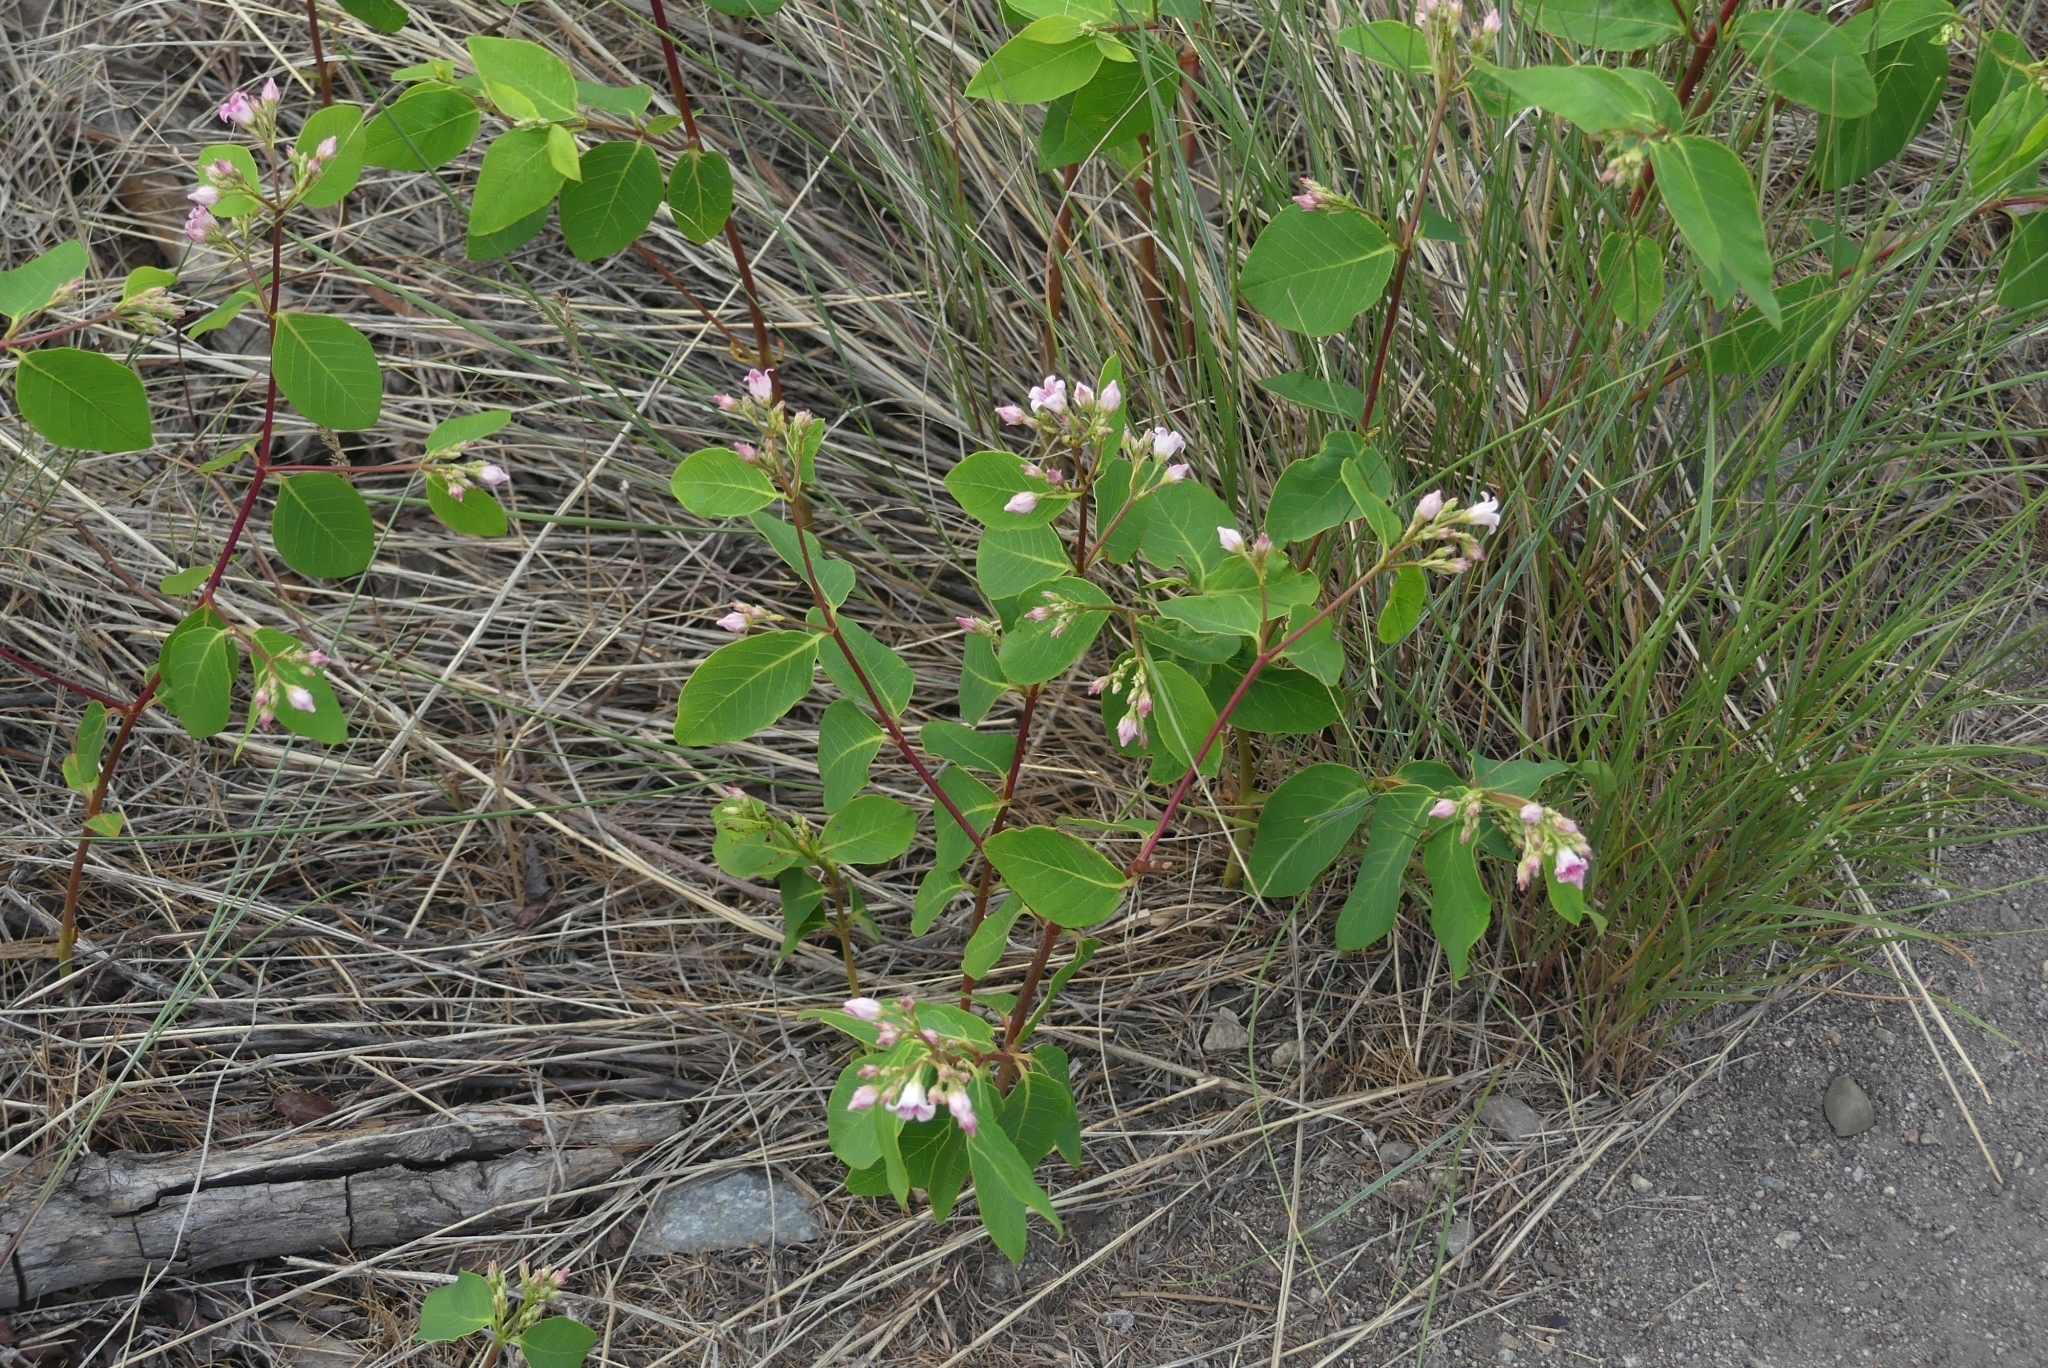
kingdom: Plantae
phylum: Tracheophyta
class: Magnoliopsida
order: Gentianales
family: Apocynaceae
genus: Apocynum
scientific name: Apocynum androsaemifolium
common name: Spreading dogbane
